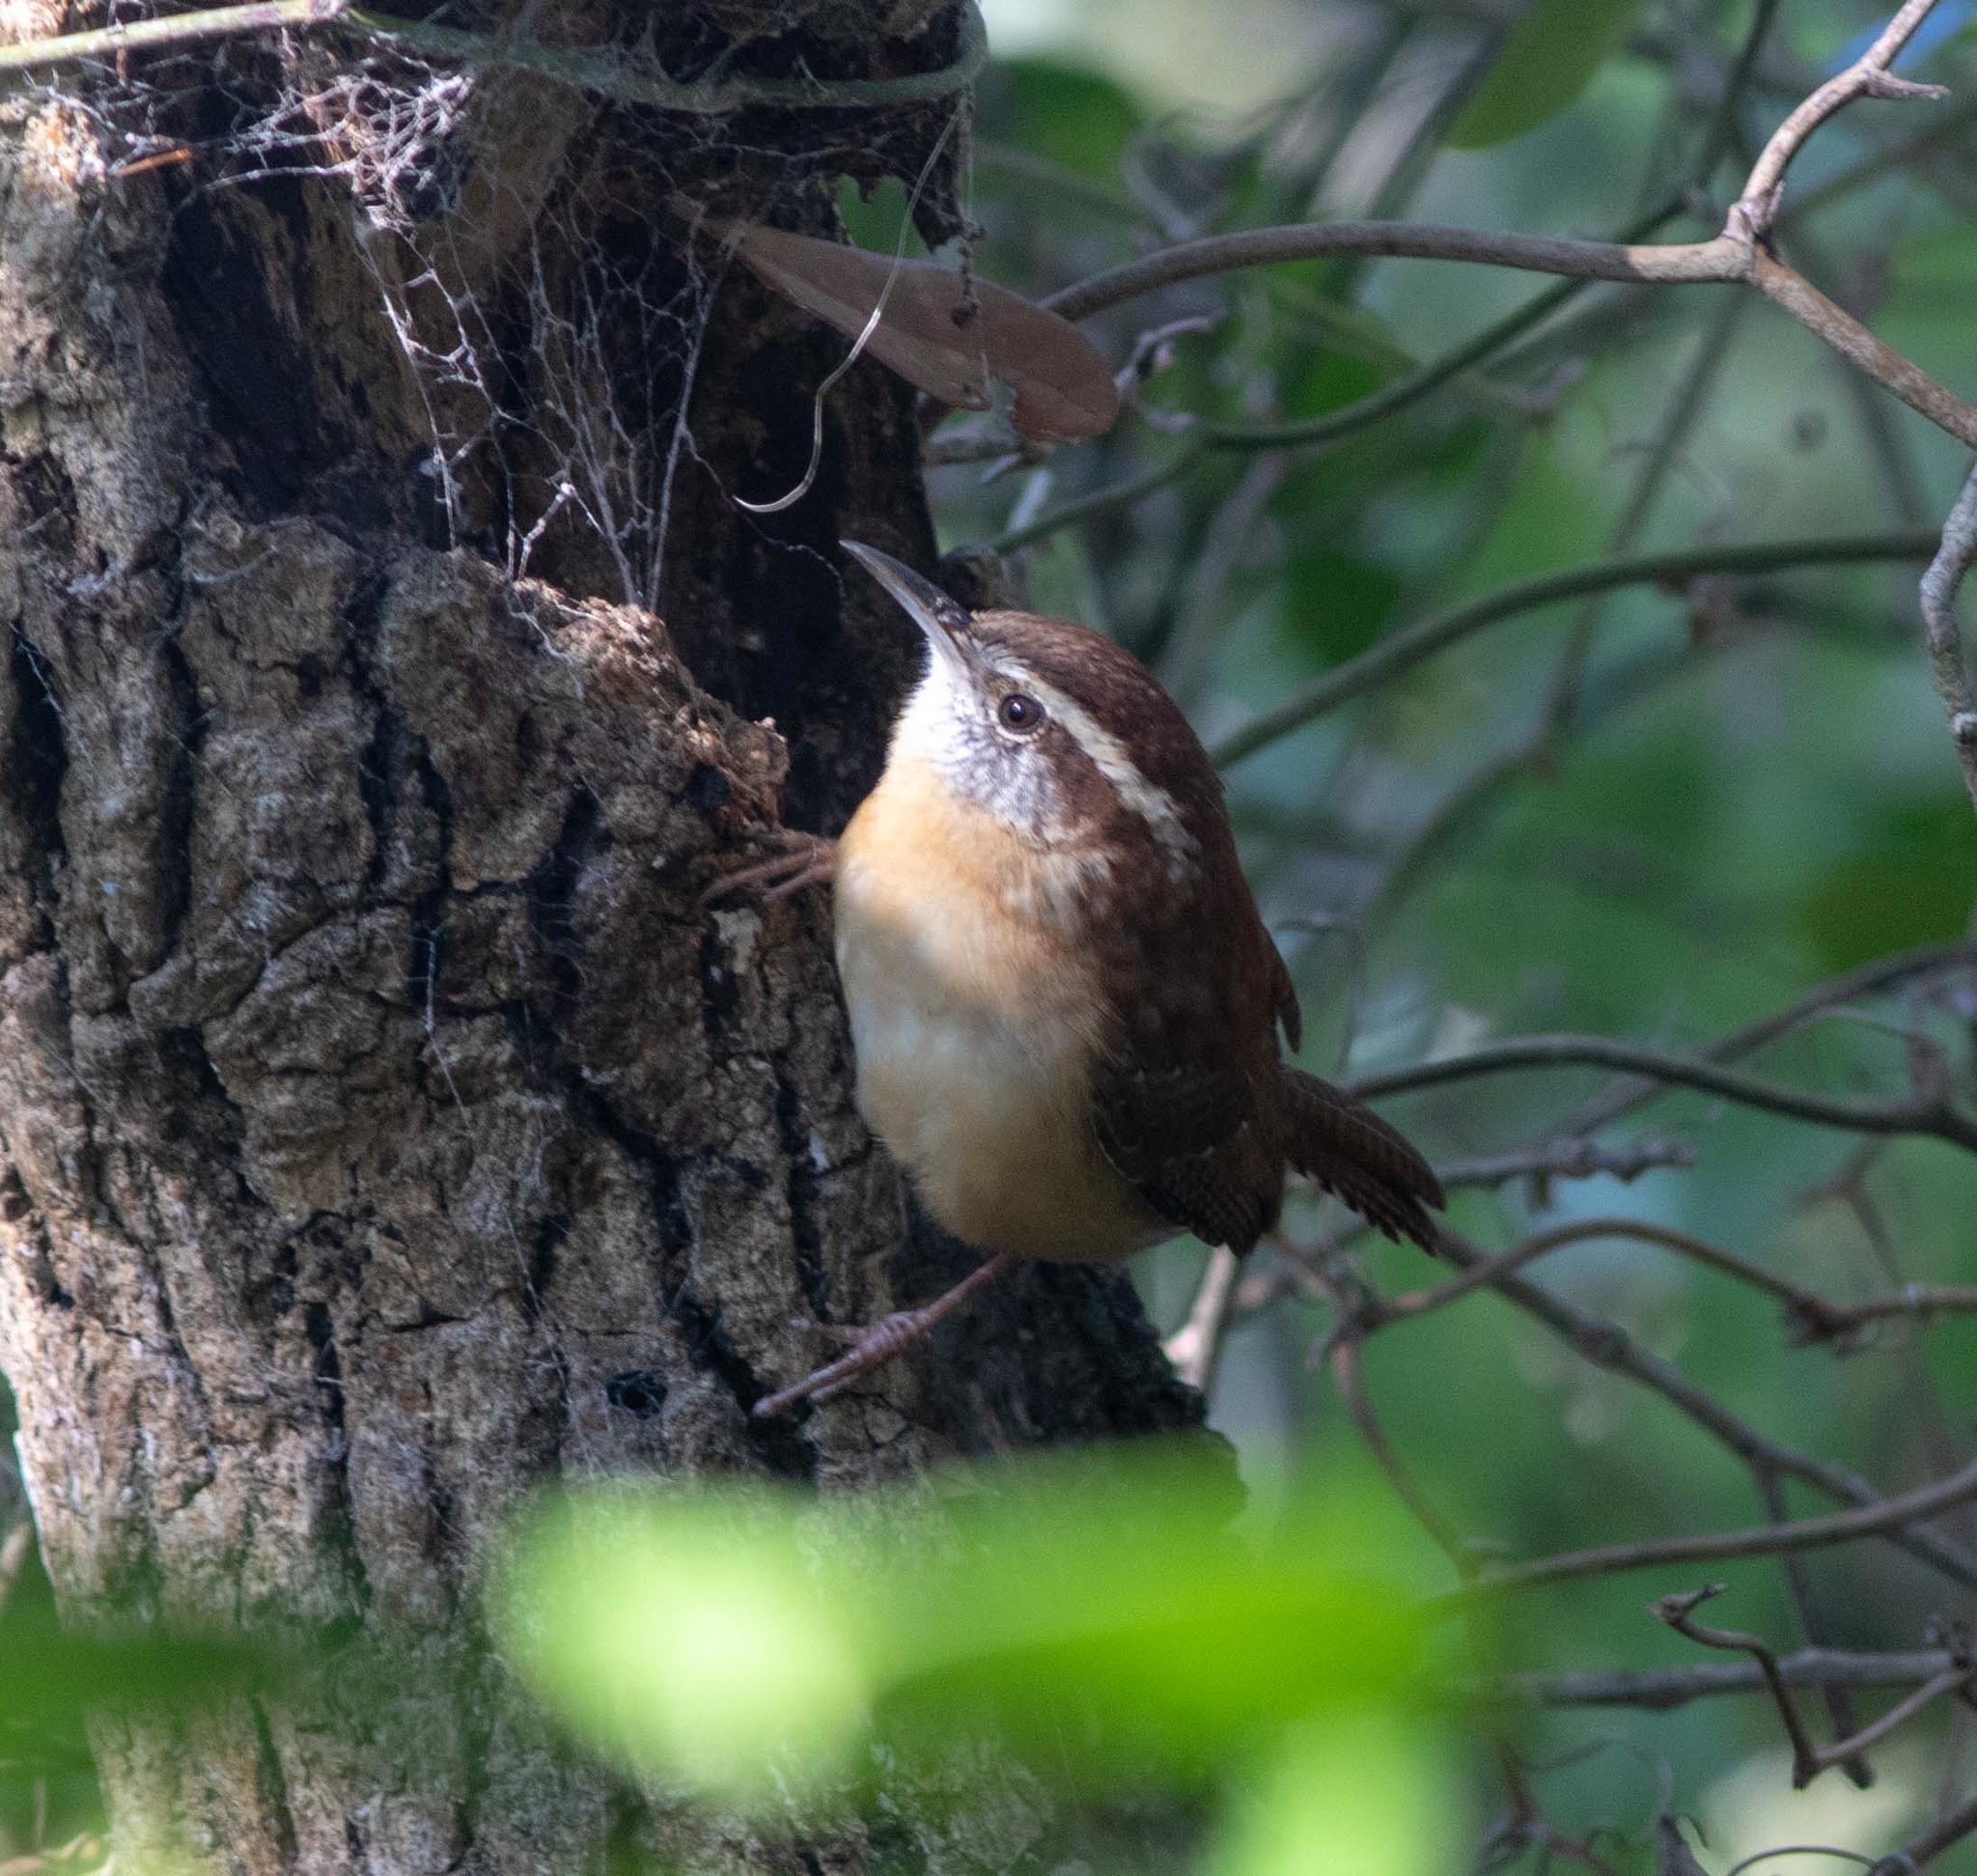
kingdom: Animalia
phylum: Chordata
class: Aves
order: Passeriformes
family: Troglodytidae
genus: Thryothorus
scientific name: Thryothorus ludovicianus
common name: Carolina wren
